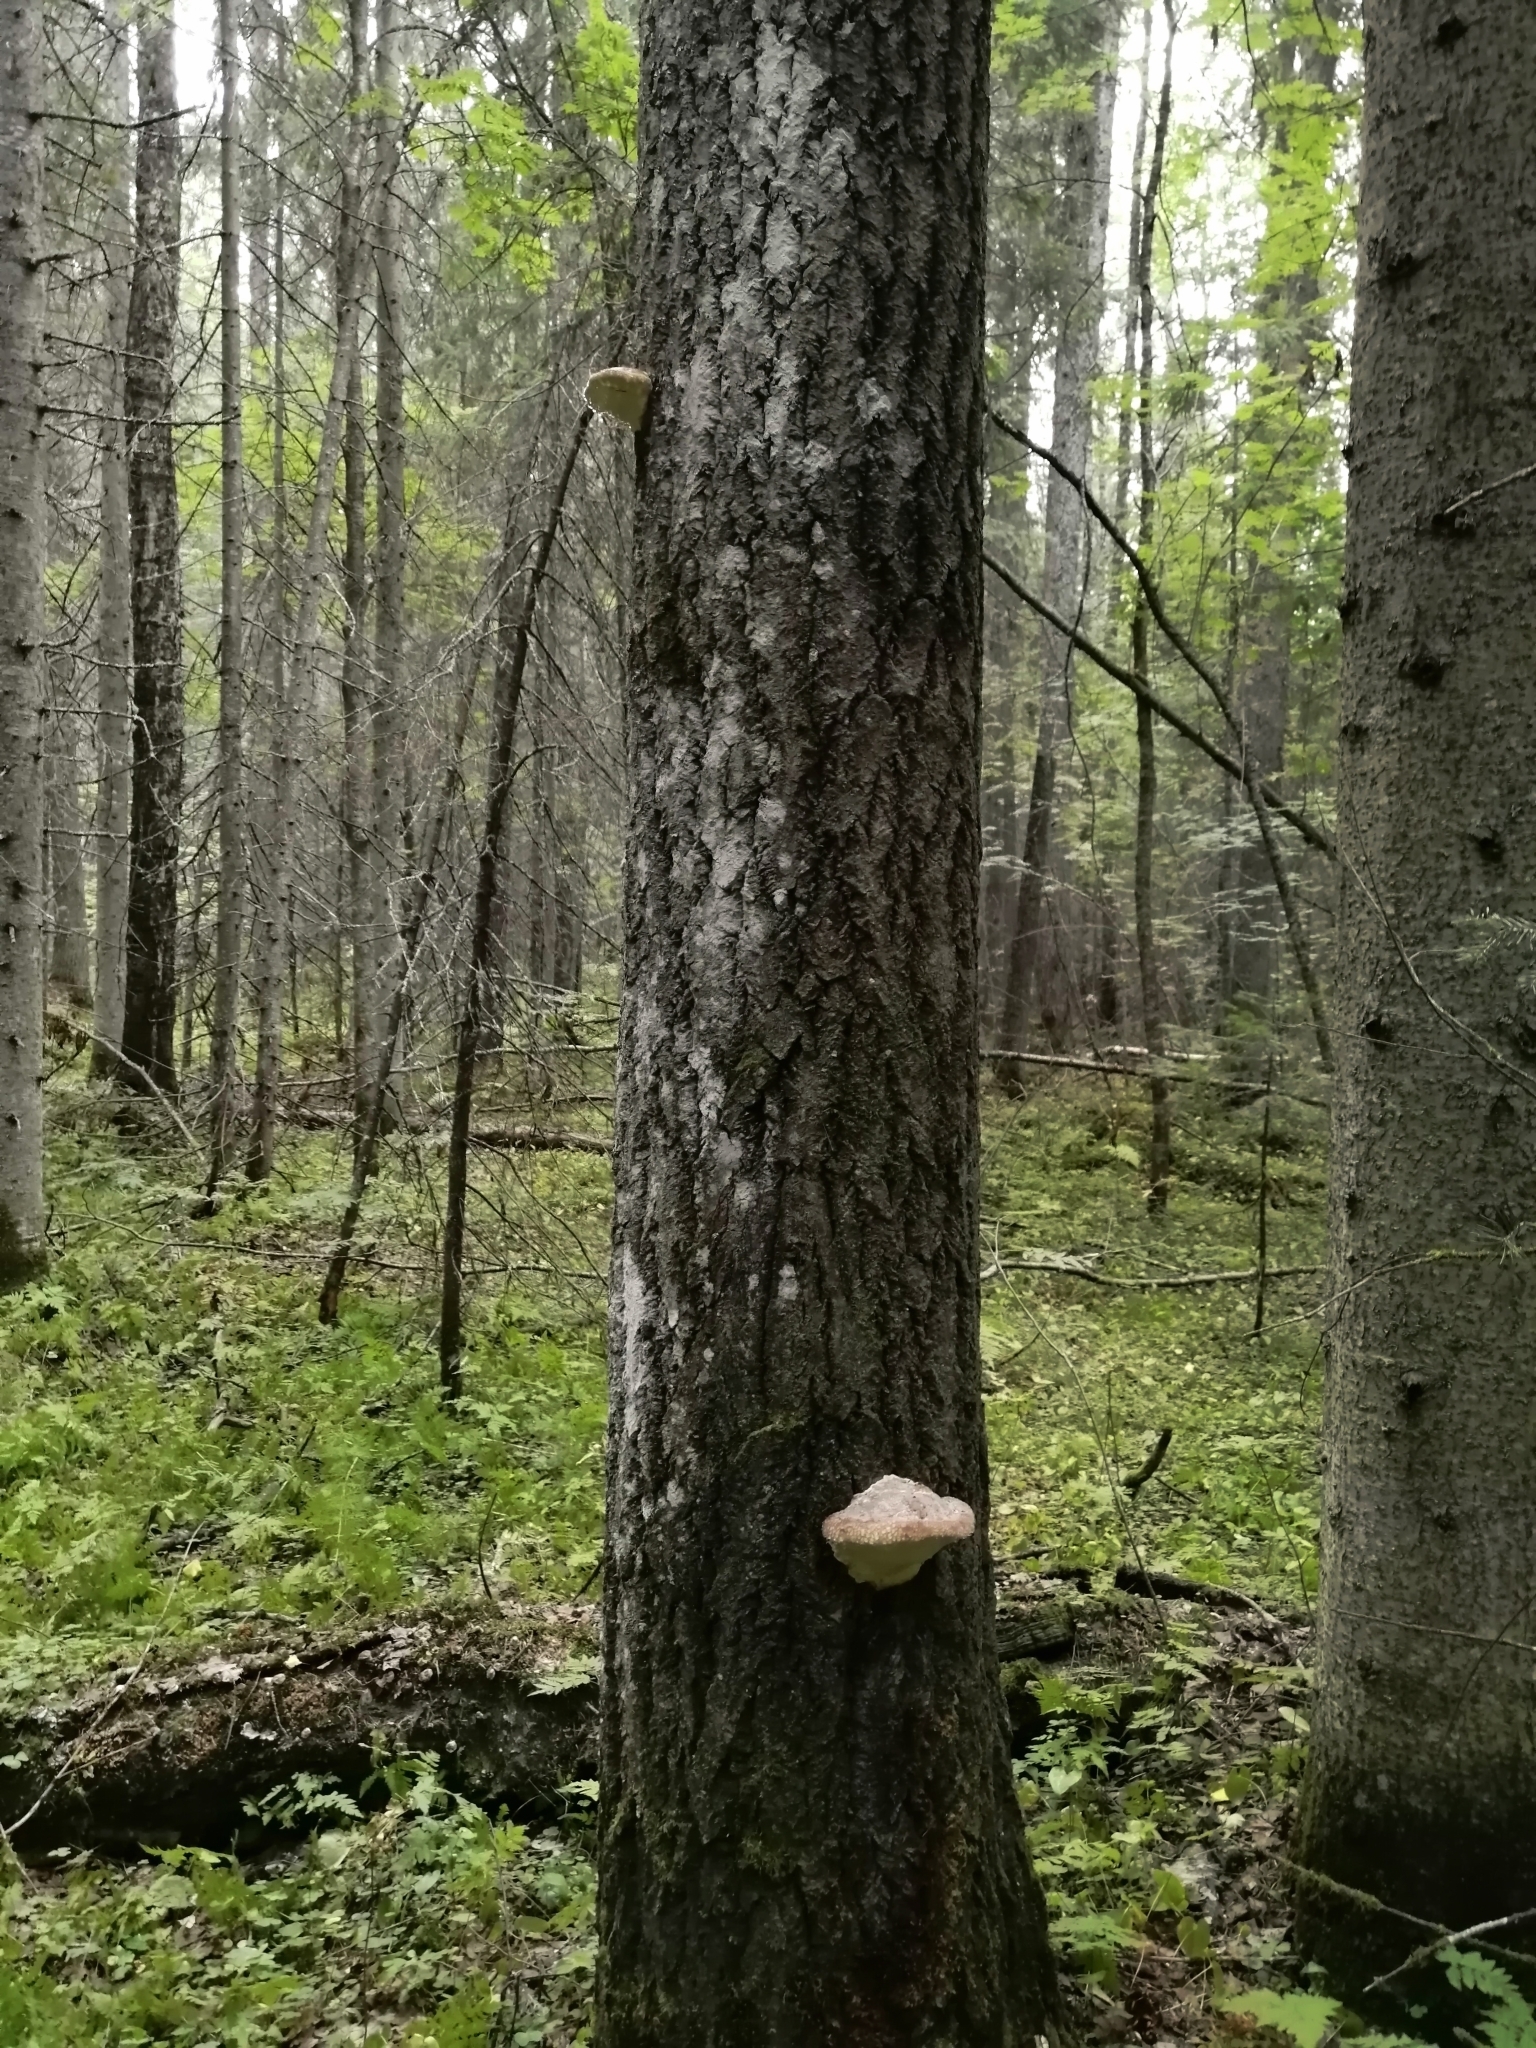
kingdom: Fungi
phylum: Basidiomycota
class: Agaricomycetes
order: Polyporales
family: Polyporaceae
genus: Fomes
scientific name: Fomes fomentarius
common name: Hoof fungus
